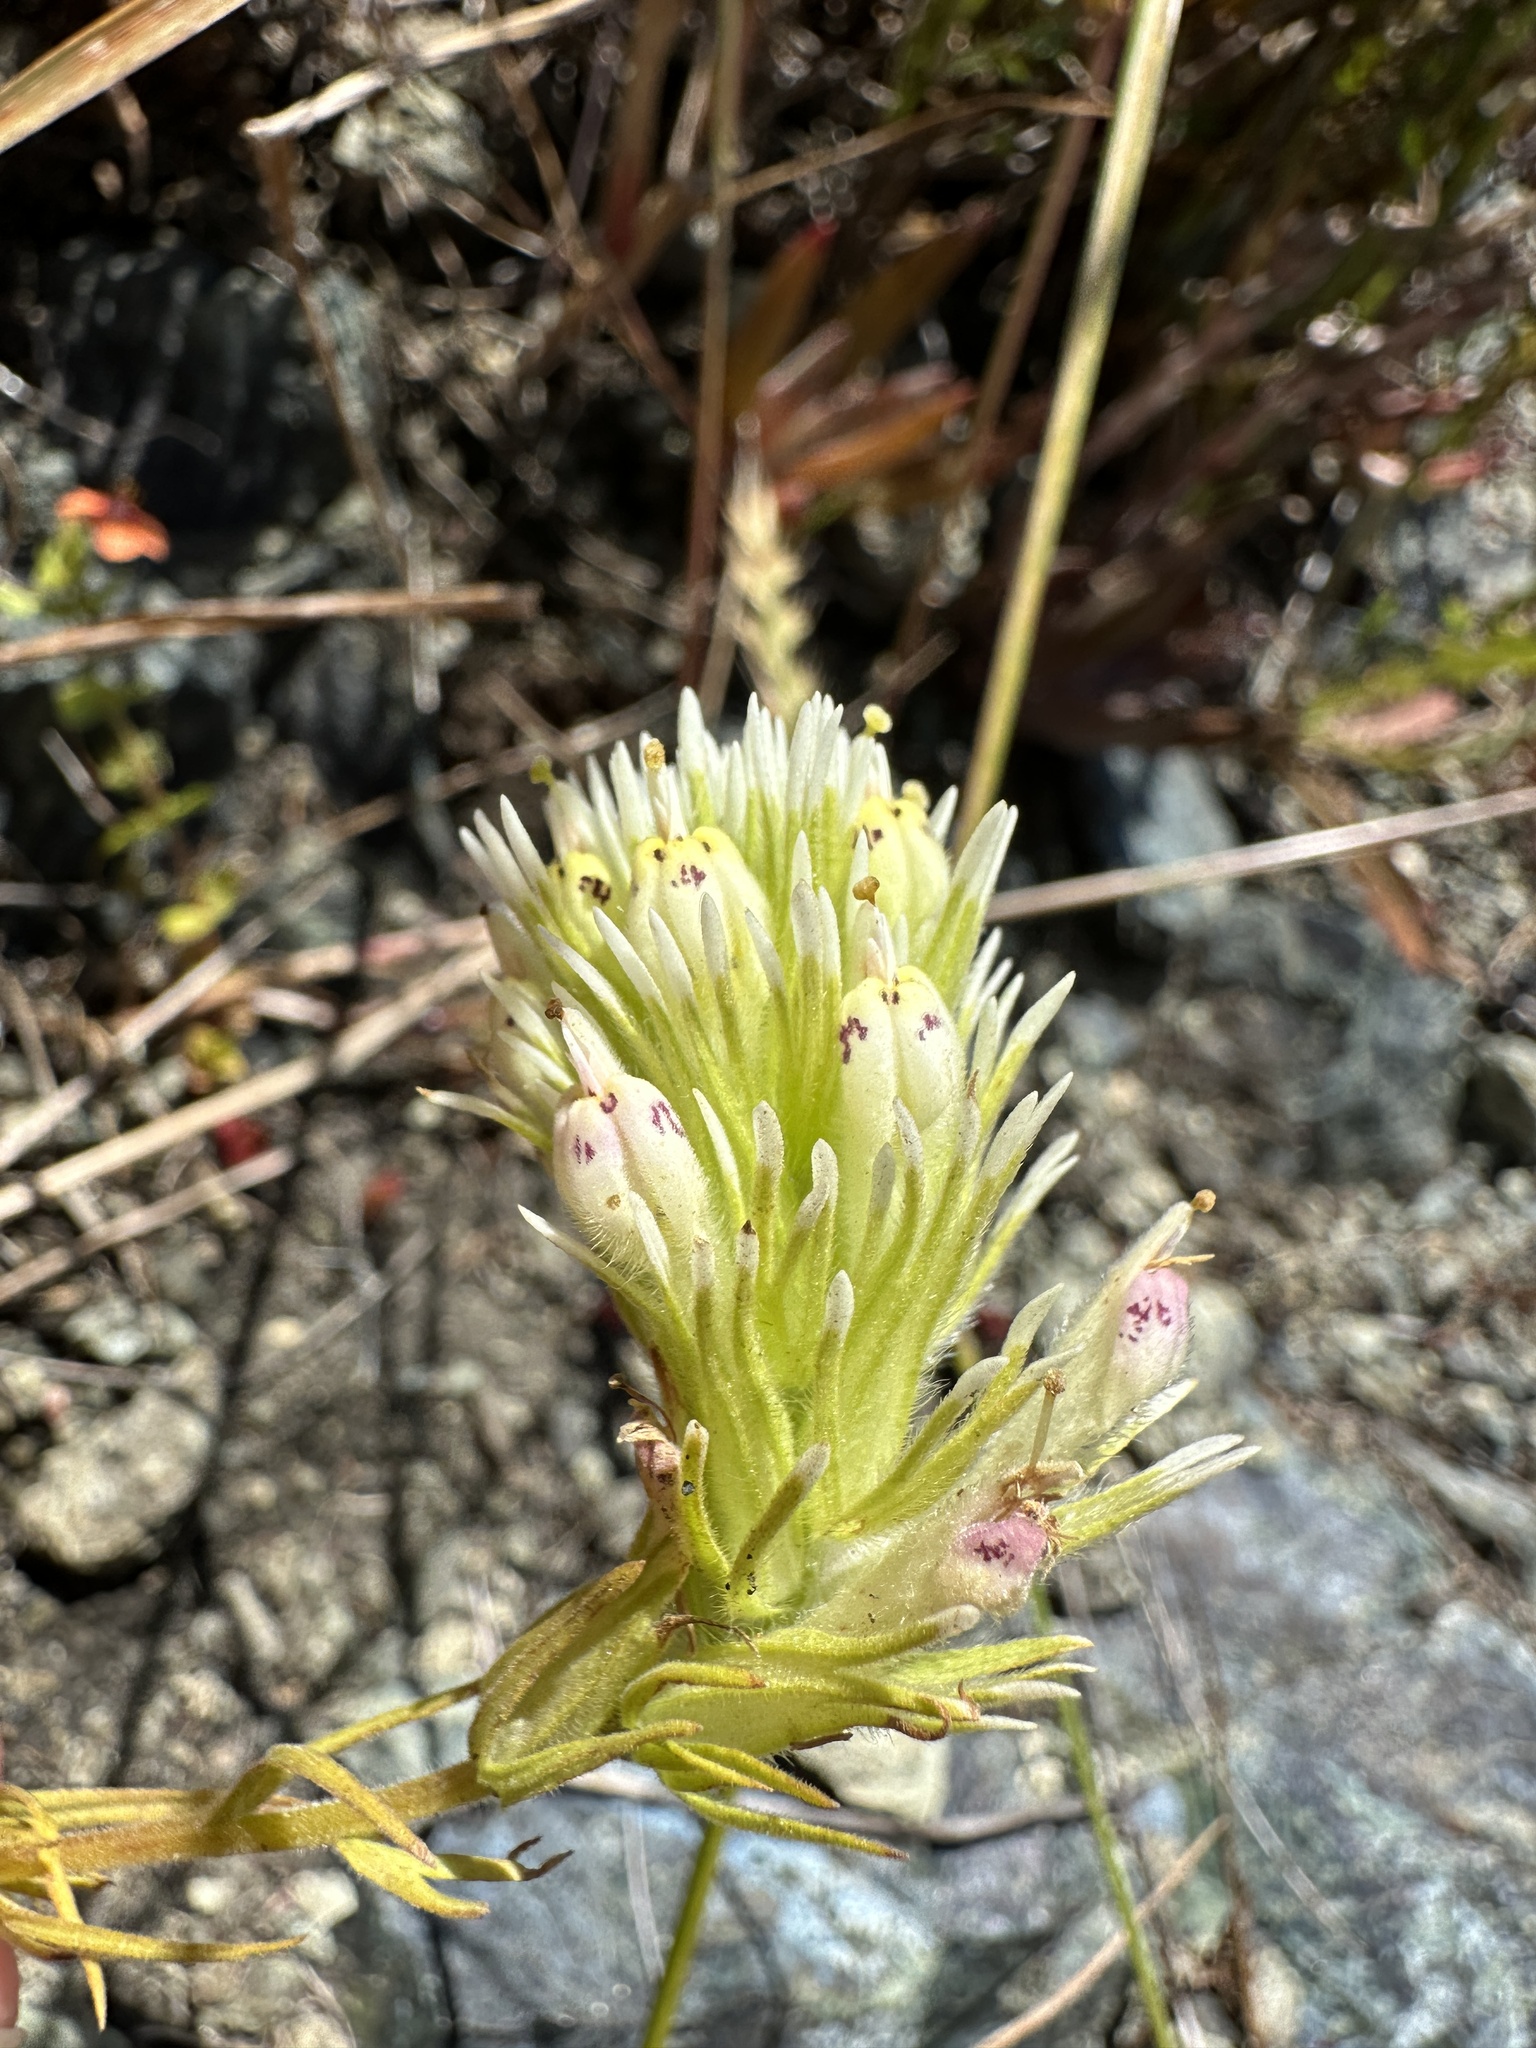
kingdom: Plantae
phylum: Tracheophyta
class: Magnoliopsida
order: Lamiales
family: Orobanchaceae
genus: Castilleja
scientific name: Castilleja densiflora
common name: Dense-flower indian paintbrush
